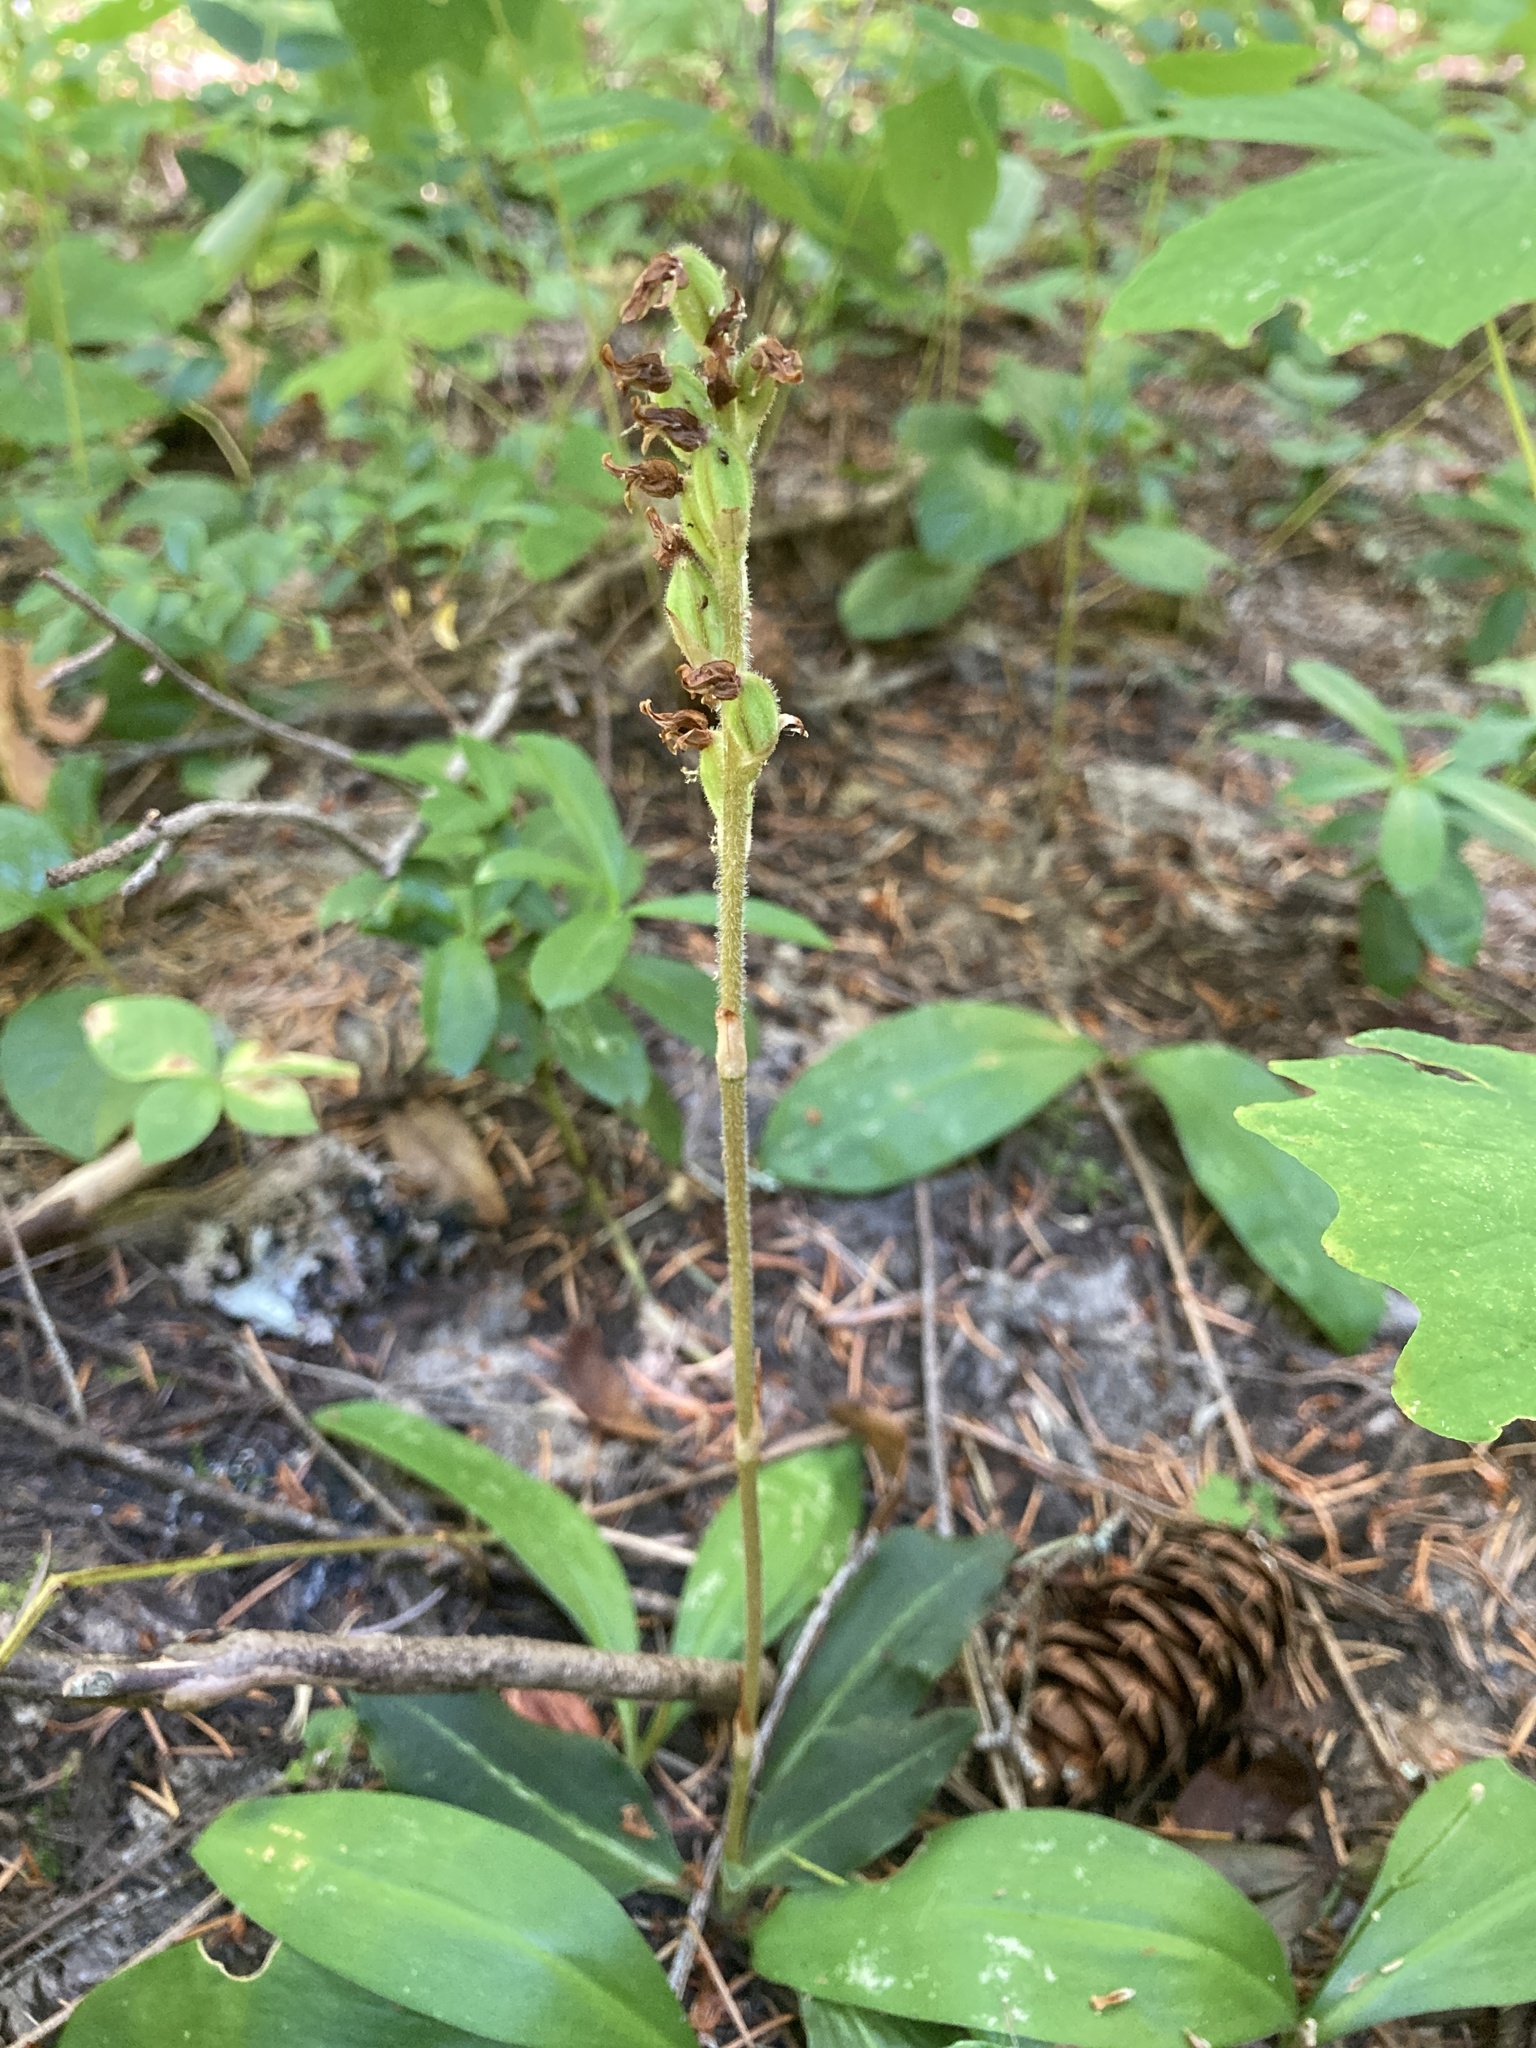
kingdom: Plantae
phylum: Tracheophyta
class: Liliopsida
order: Asparagales
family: Orchidaceae
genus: Goodyera
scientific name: Goodyera oblongifolia
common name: Giant rattlesnake-plantain
